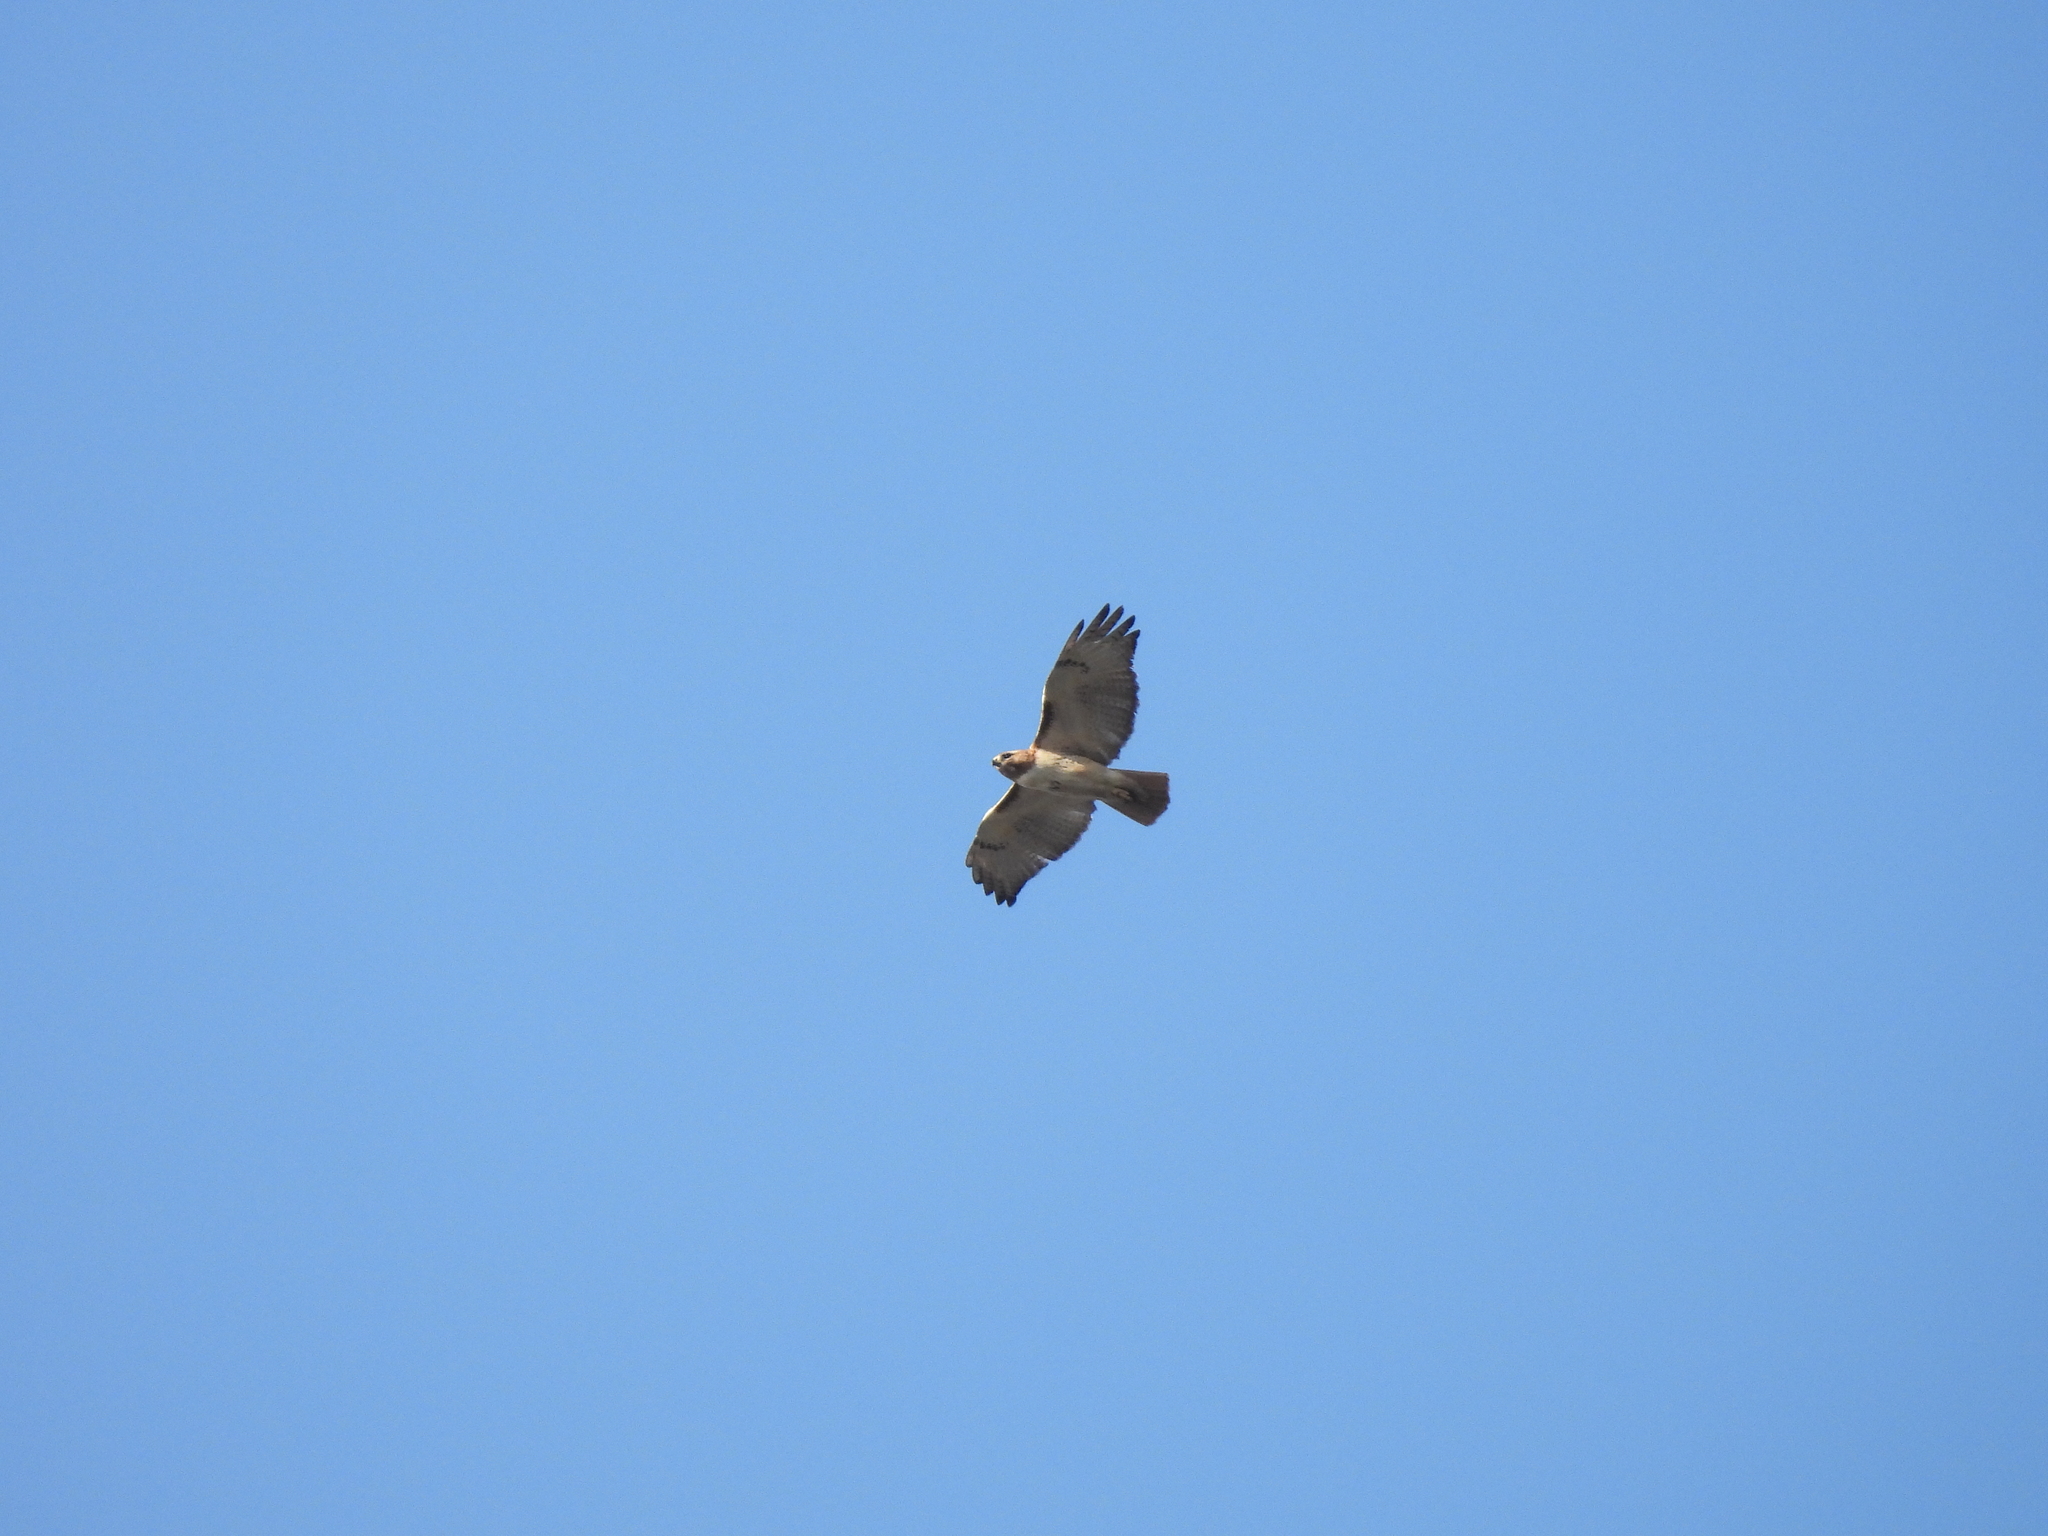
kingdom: Animalia
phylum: Chordata
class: Aves
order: Accipitriformes
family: Accipitridae
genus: Buteo
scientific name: Buteo jamaicensis
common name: Red-tailed hawk
